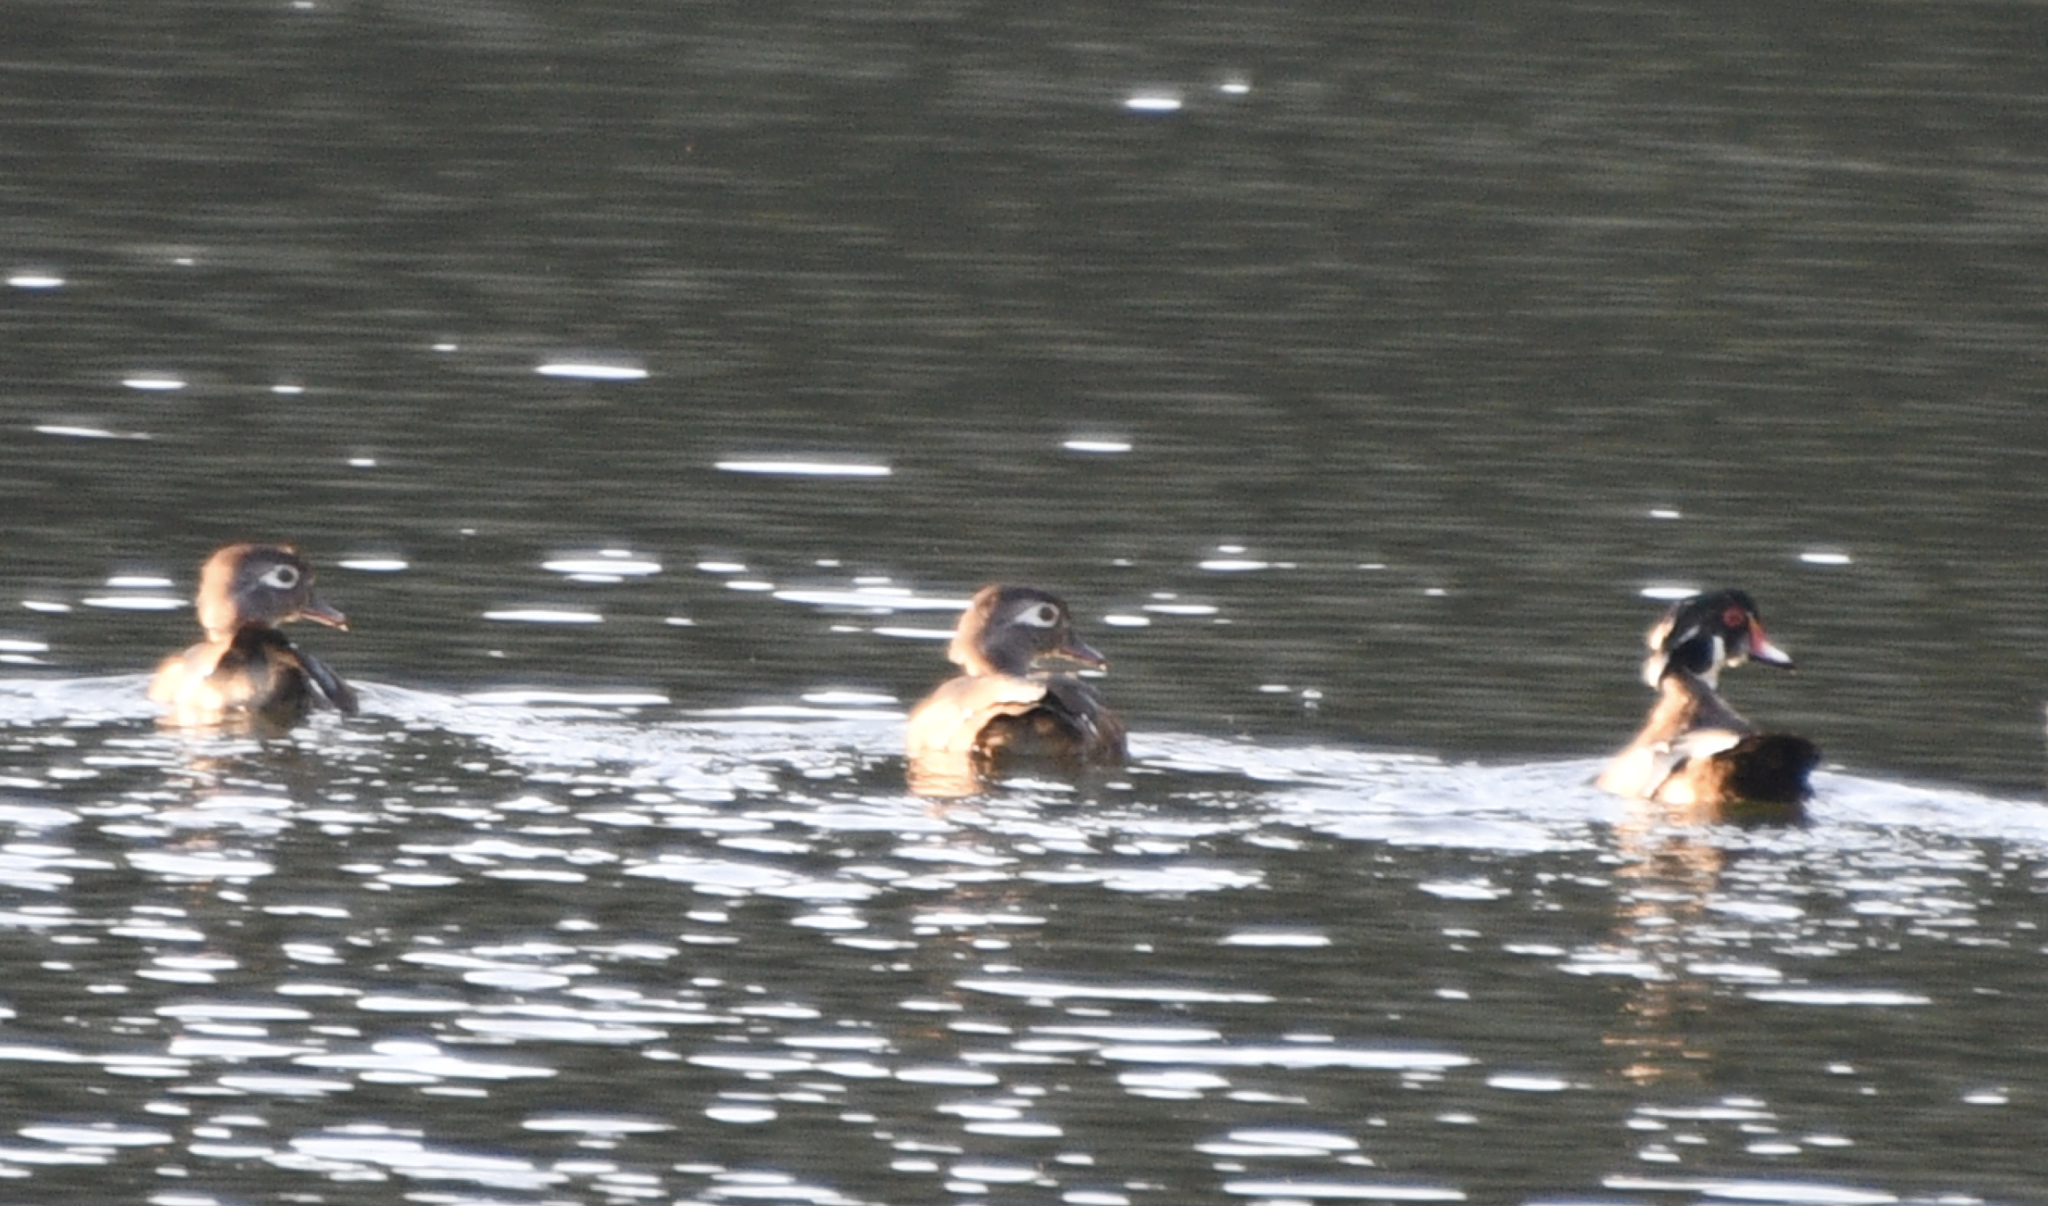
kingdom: Animalia
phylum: Chordata
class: Aves
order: Anseriformes
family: Anatidae
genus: Aix
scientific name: Aix sponsa
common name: Wood duck
